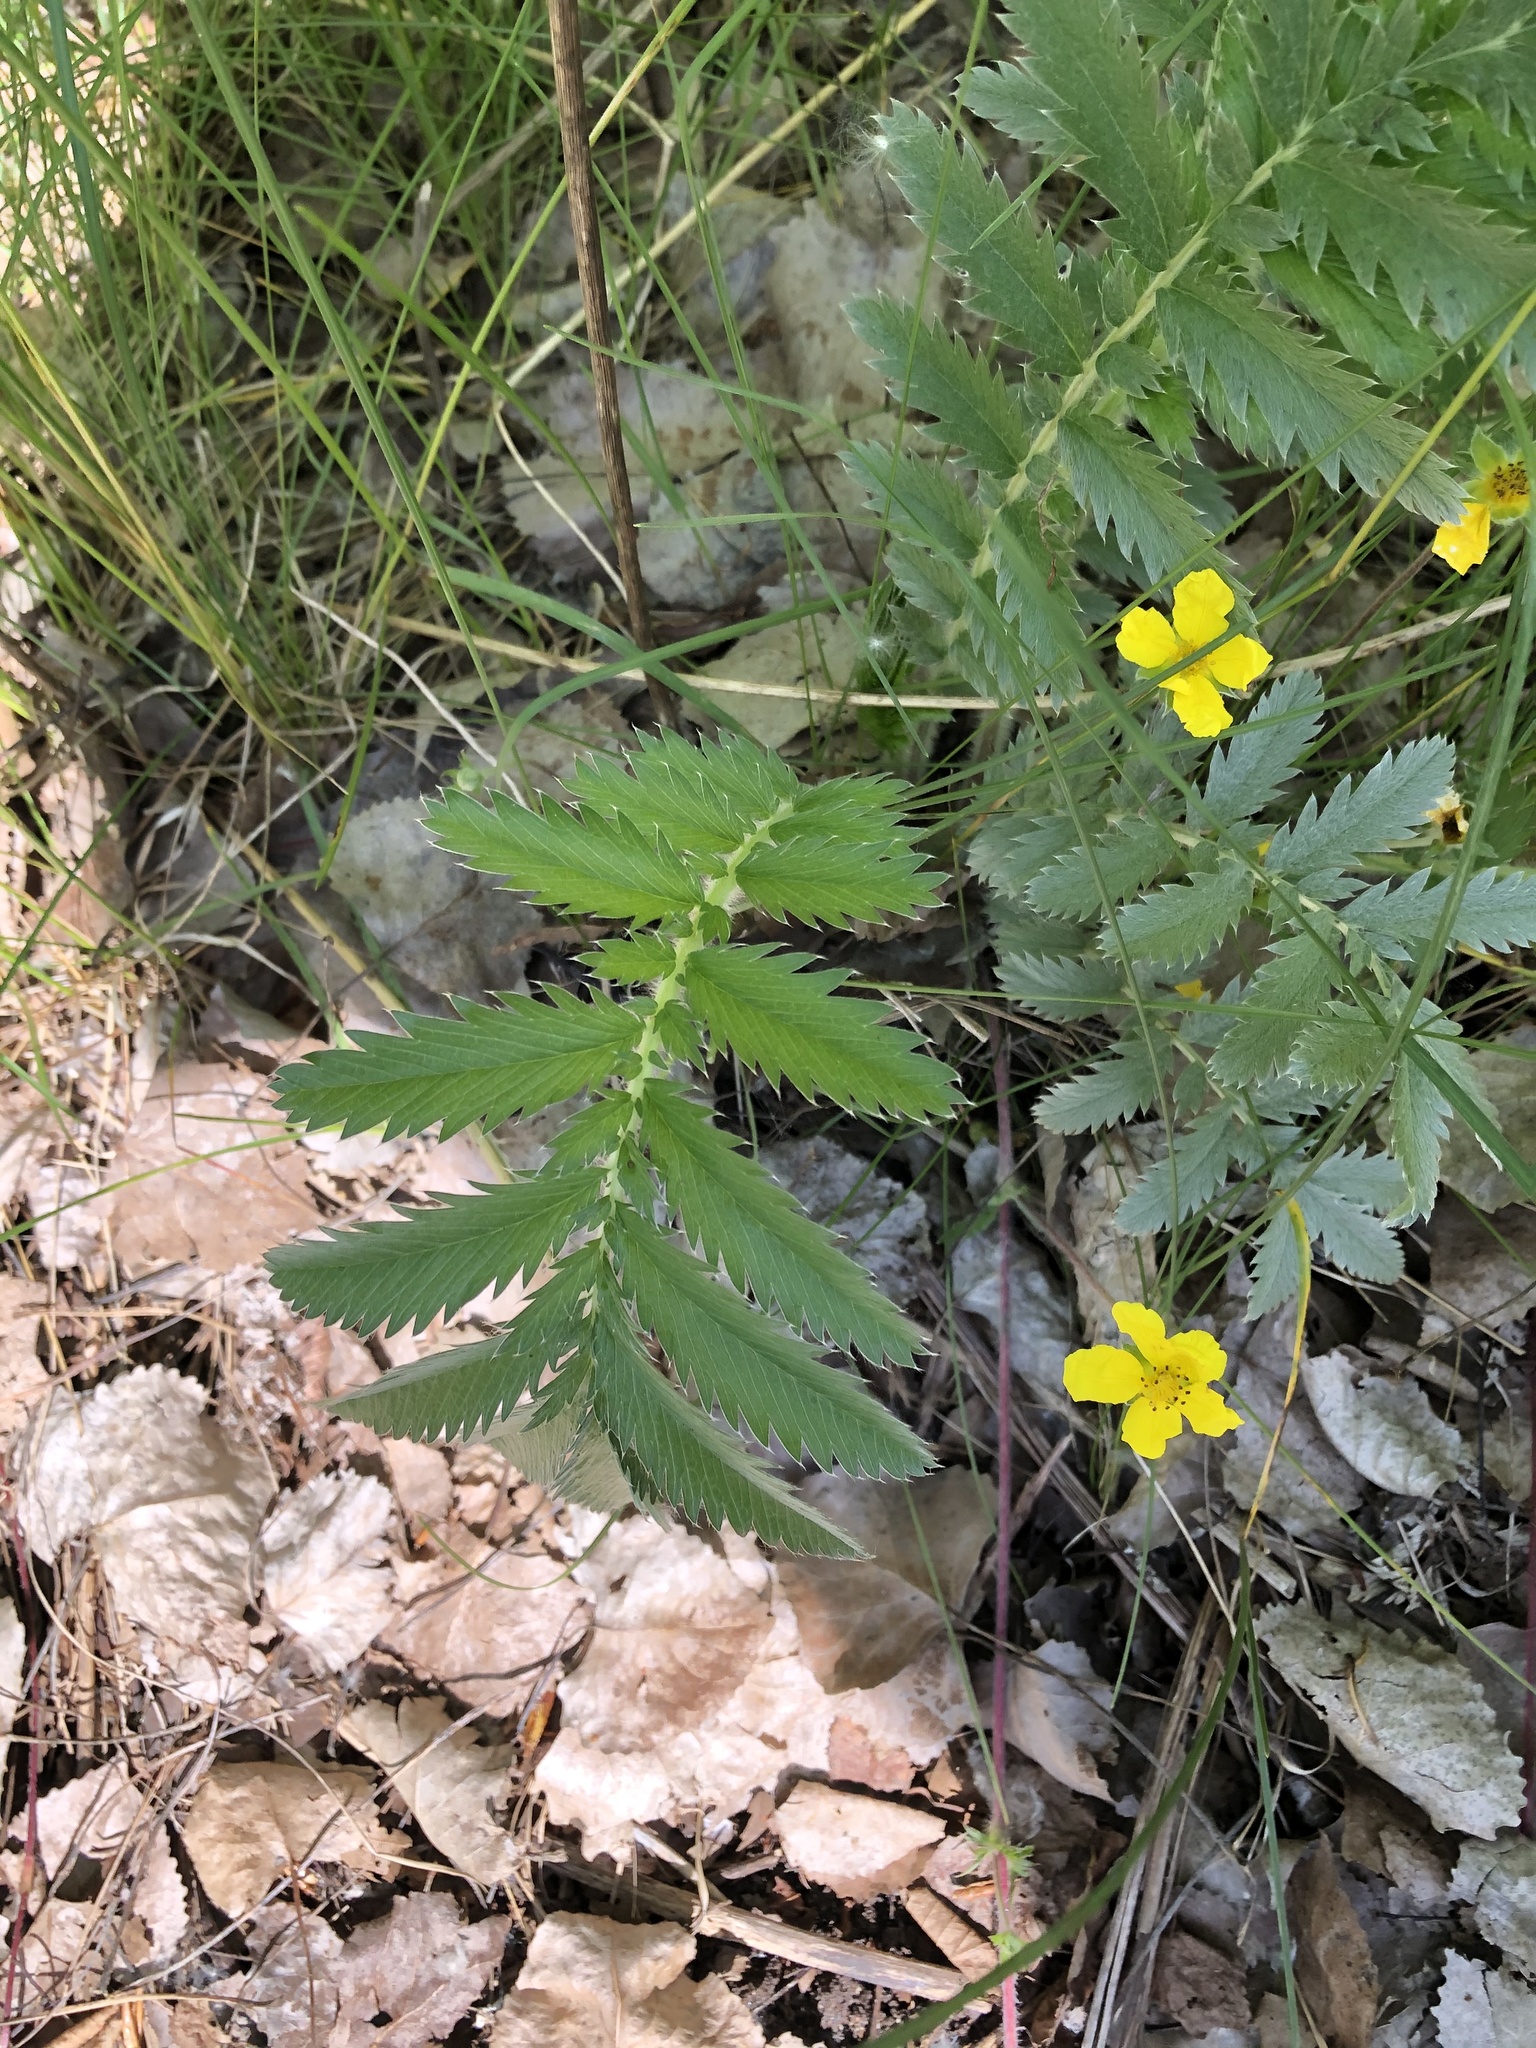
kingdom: Plantae
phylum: Tracheophyta
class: Magnoliopsida
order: Rosales
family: Rosaceae
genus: Argentina
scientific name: Argentina anserina
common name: Common silverweed
